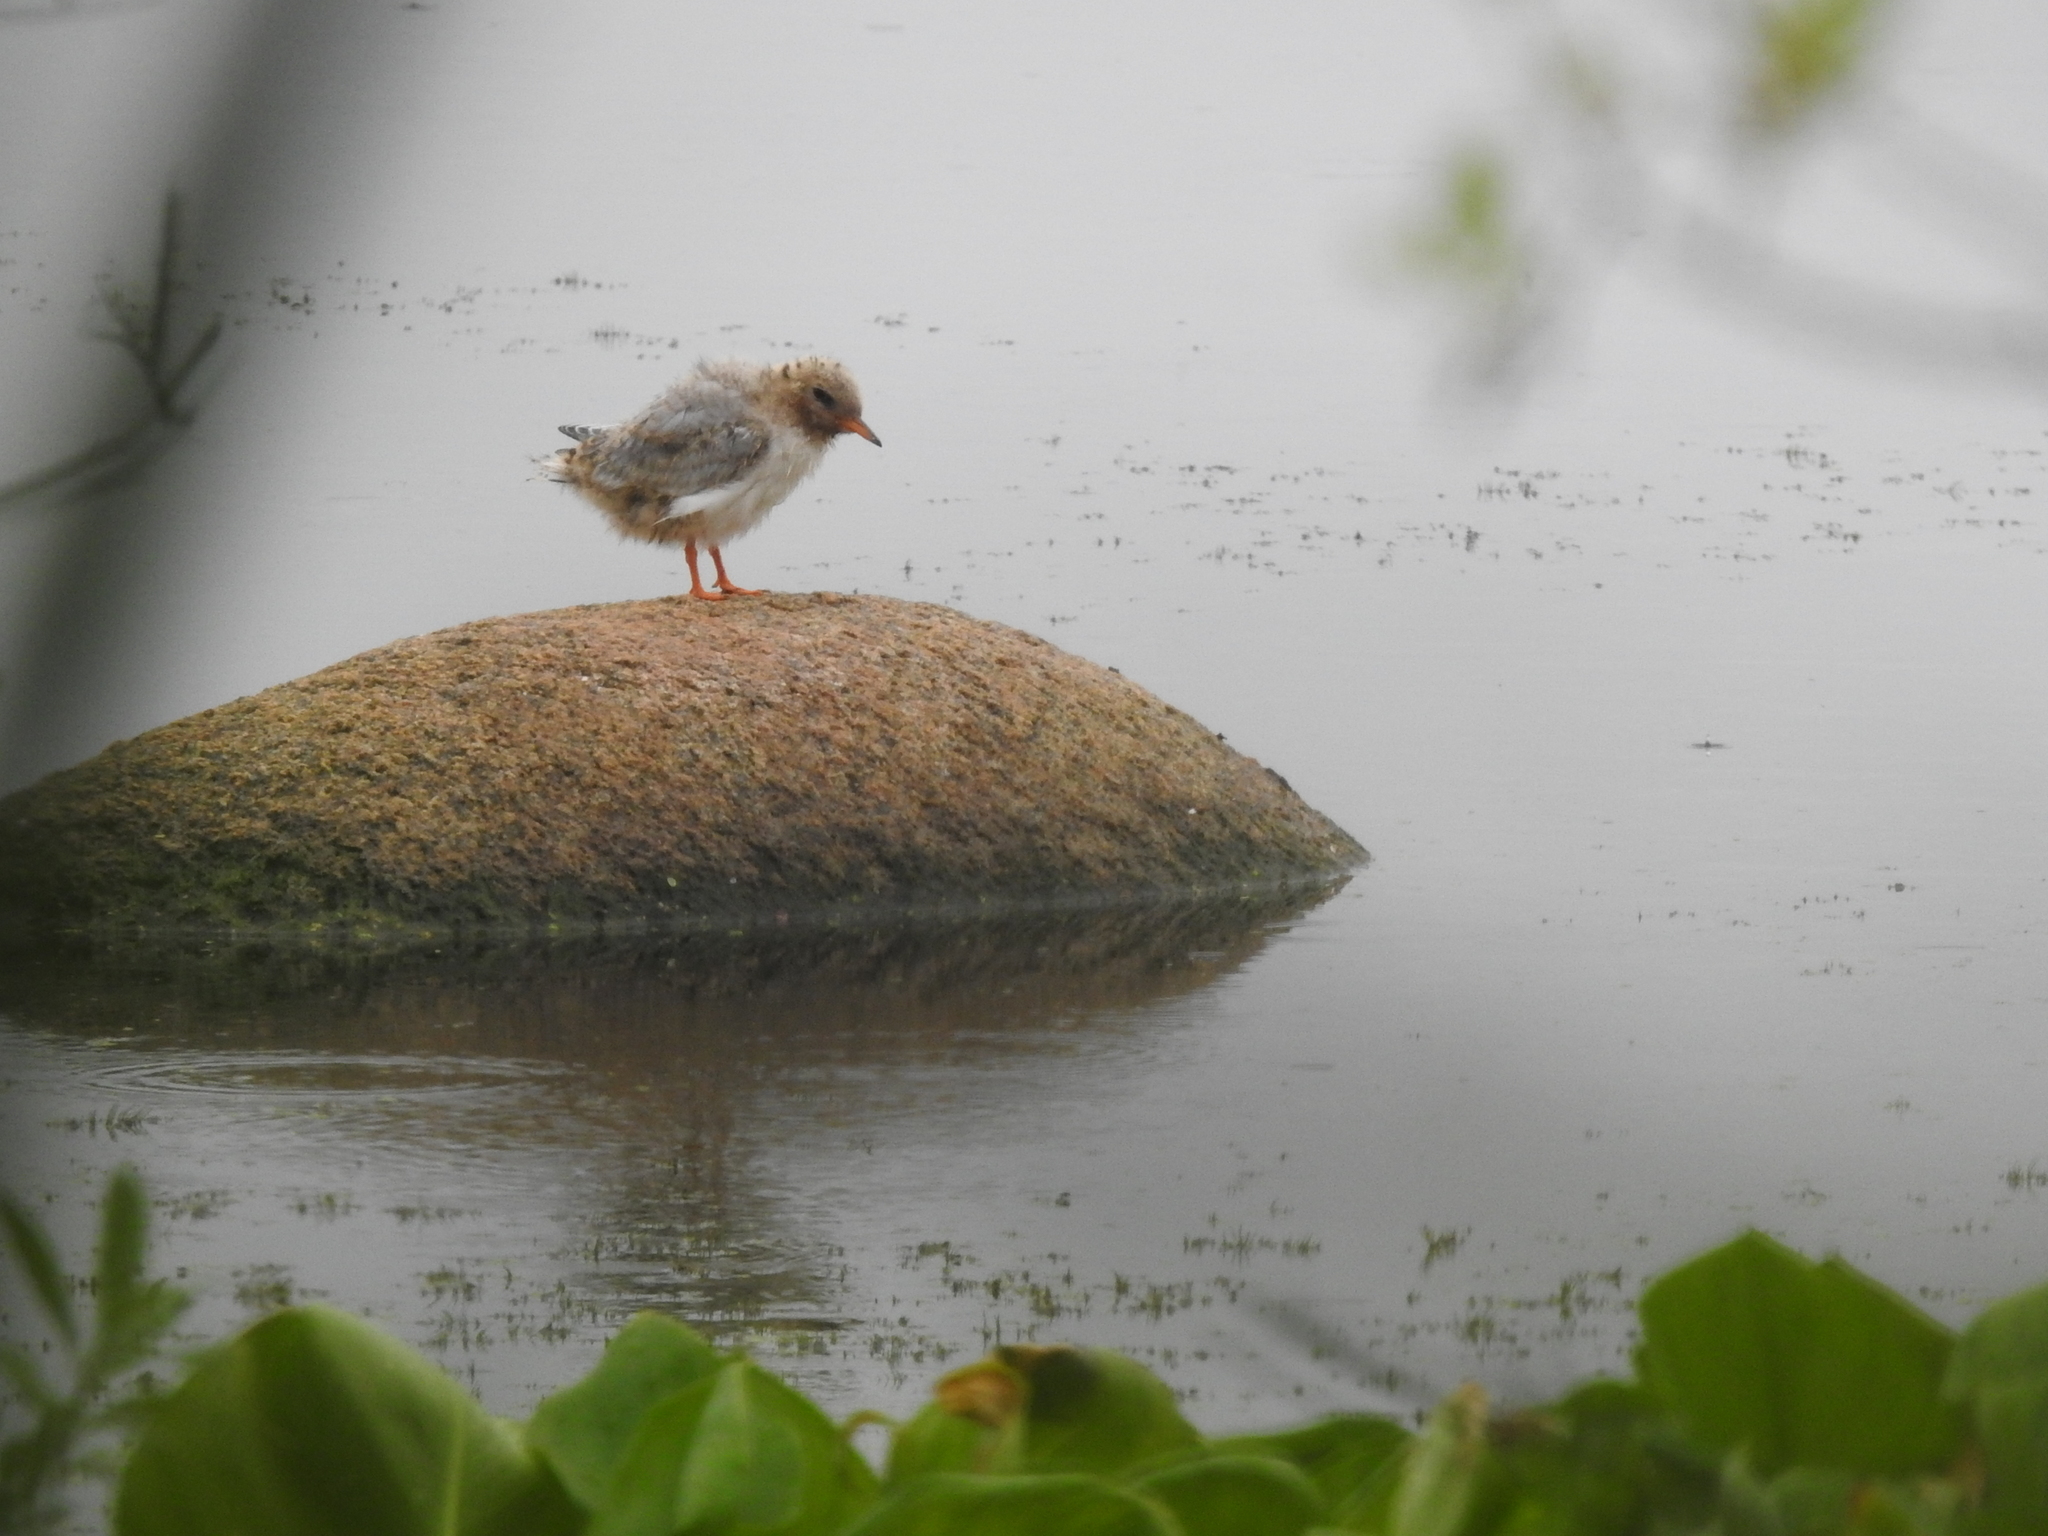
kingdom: Animalia
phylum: Chordata
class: Aves
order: Charadriiformes
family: Laridae
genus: Sterna
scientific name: Sterna hirundo
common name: Common tern
